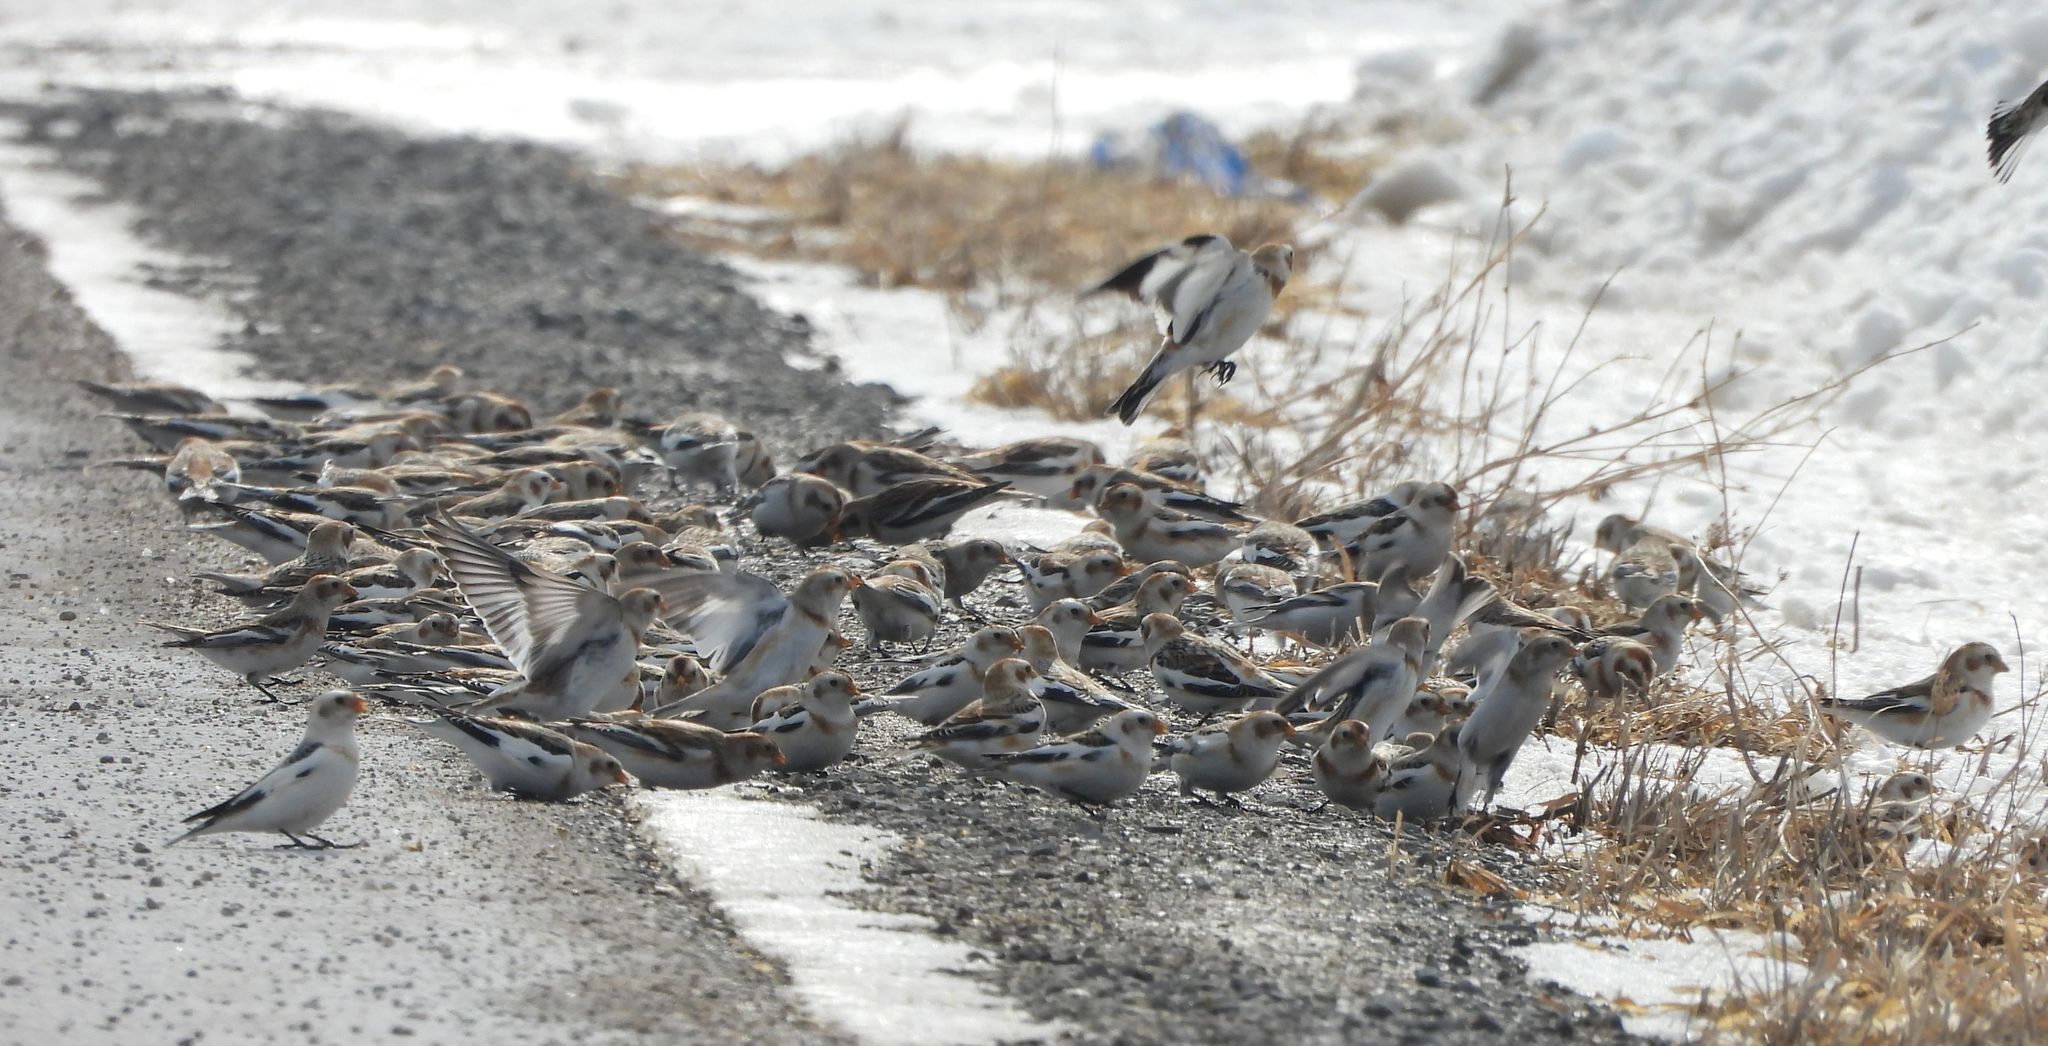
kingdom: Animalia
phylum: Chordata
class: Aves
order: Passeriformes
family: Calcariidae
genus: Plectrophenax
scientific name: Plectrophenax nivalis
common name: Snow bunting
